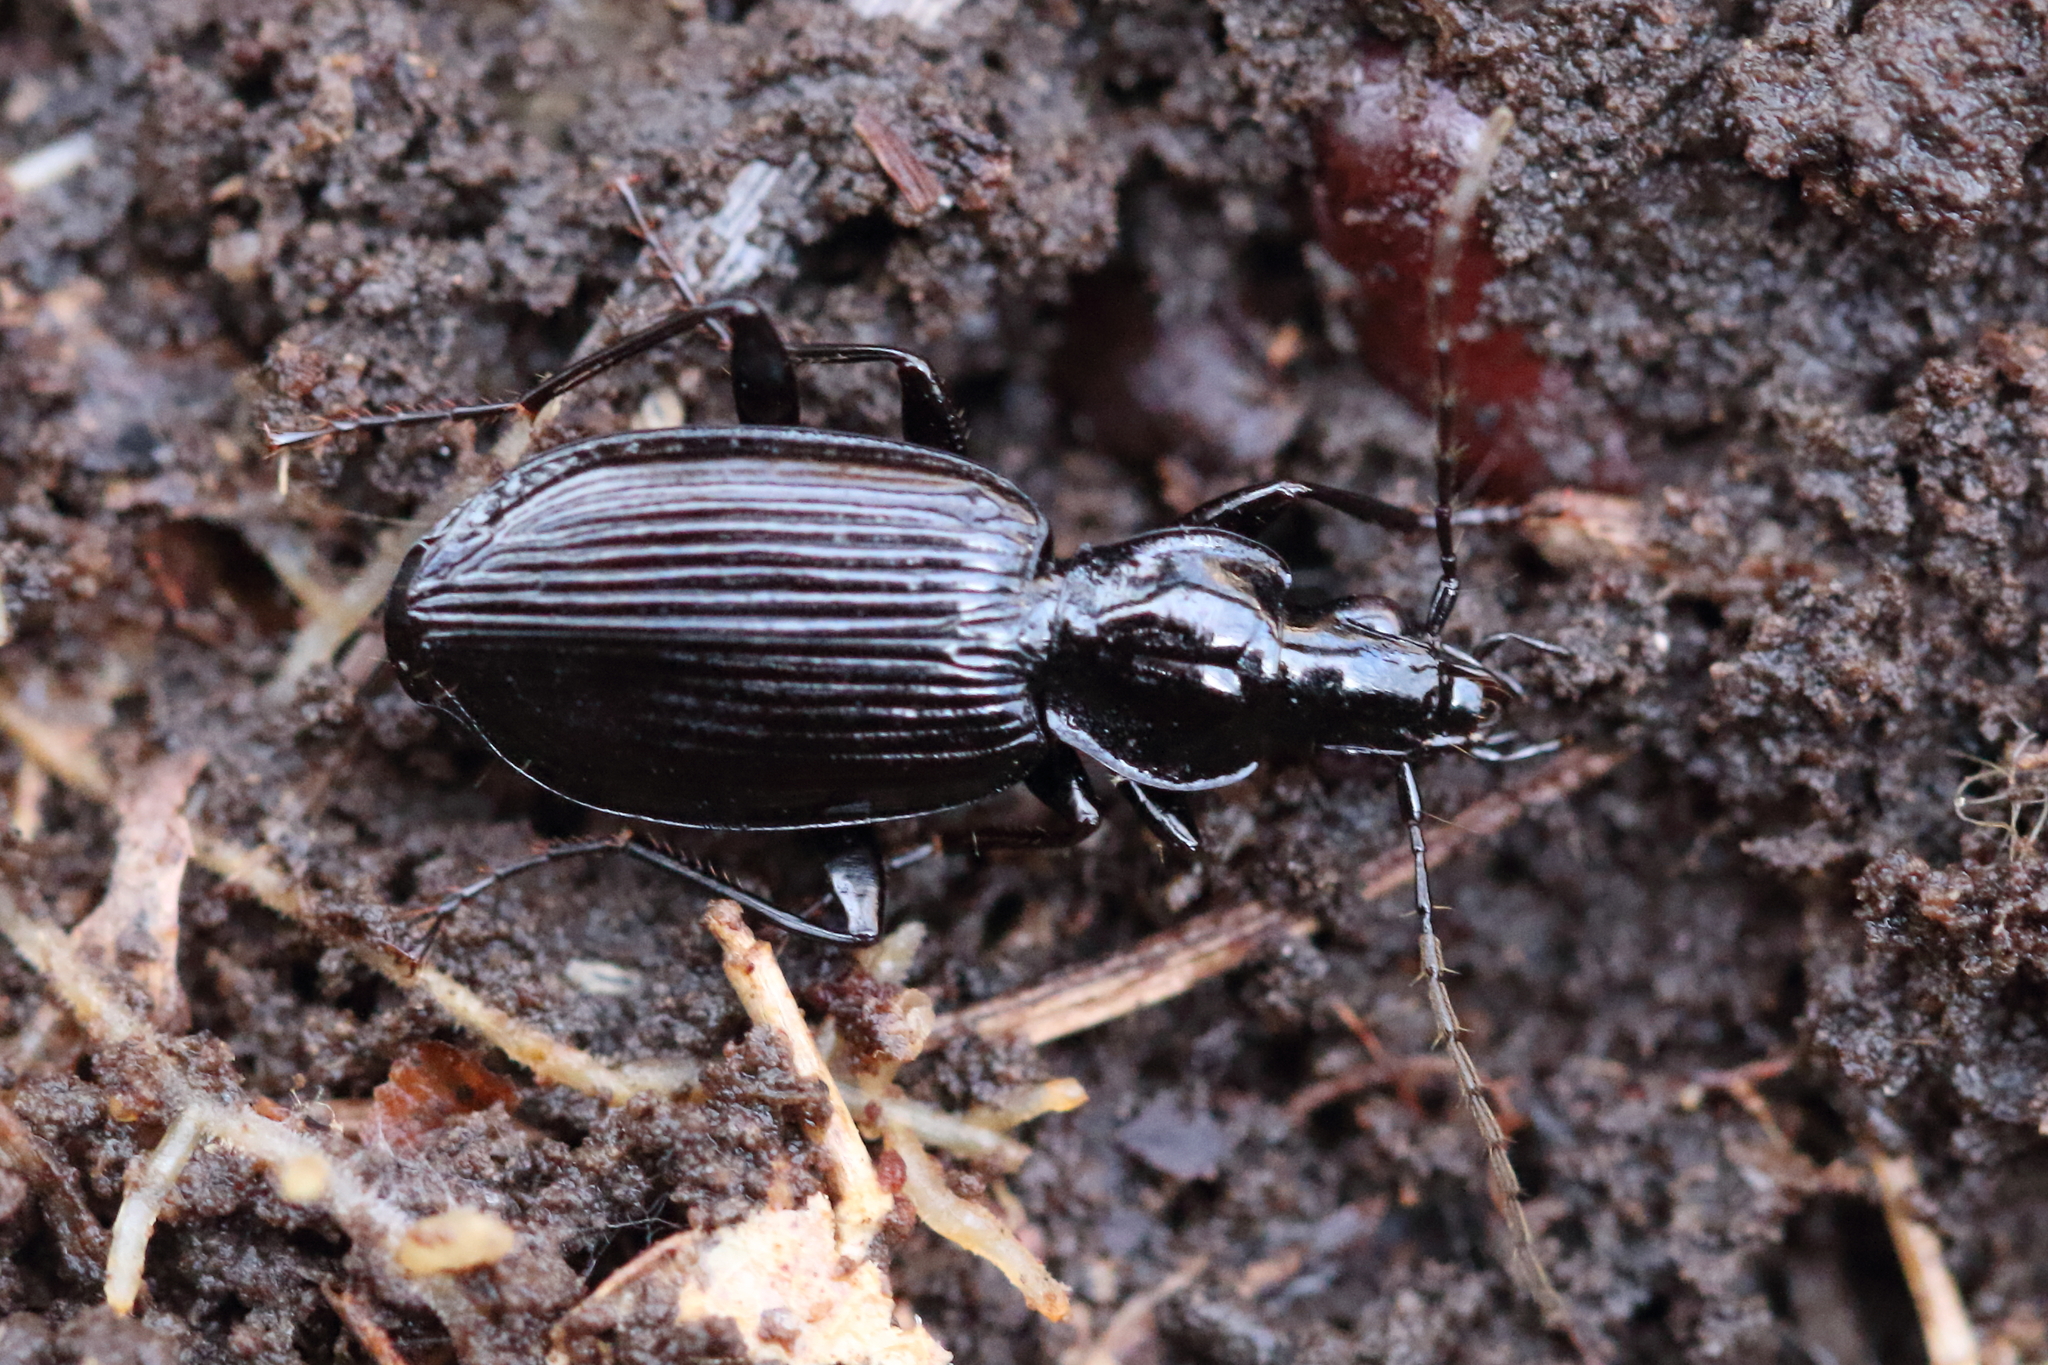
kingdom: Animalia
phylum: Arthropoda
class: Insecta
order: Coleoptera
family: Carabidae
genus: Platynus
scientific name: Platynus decentis
